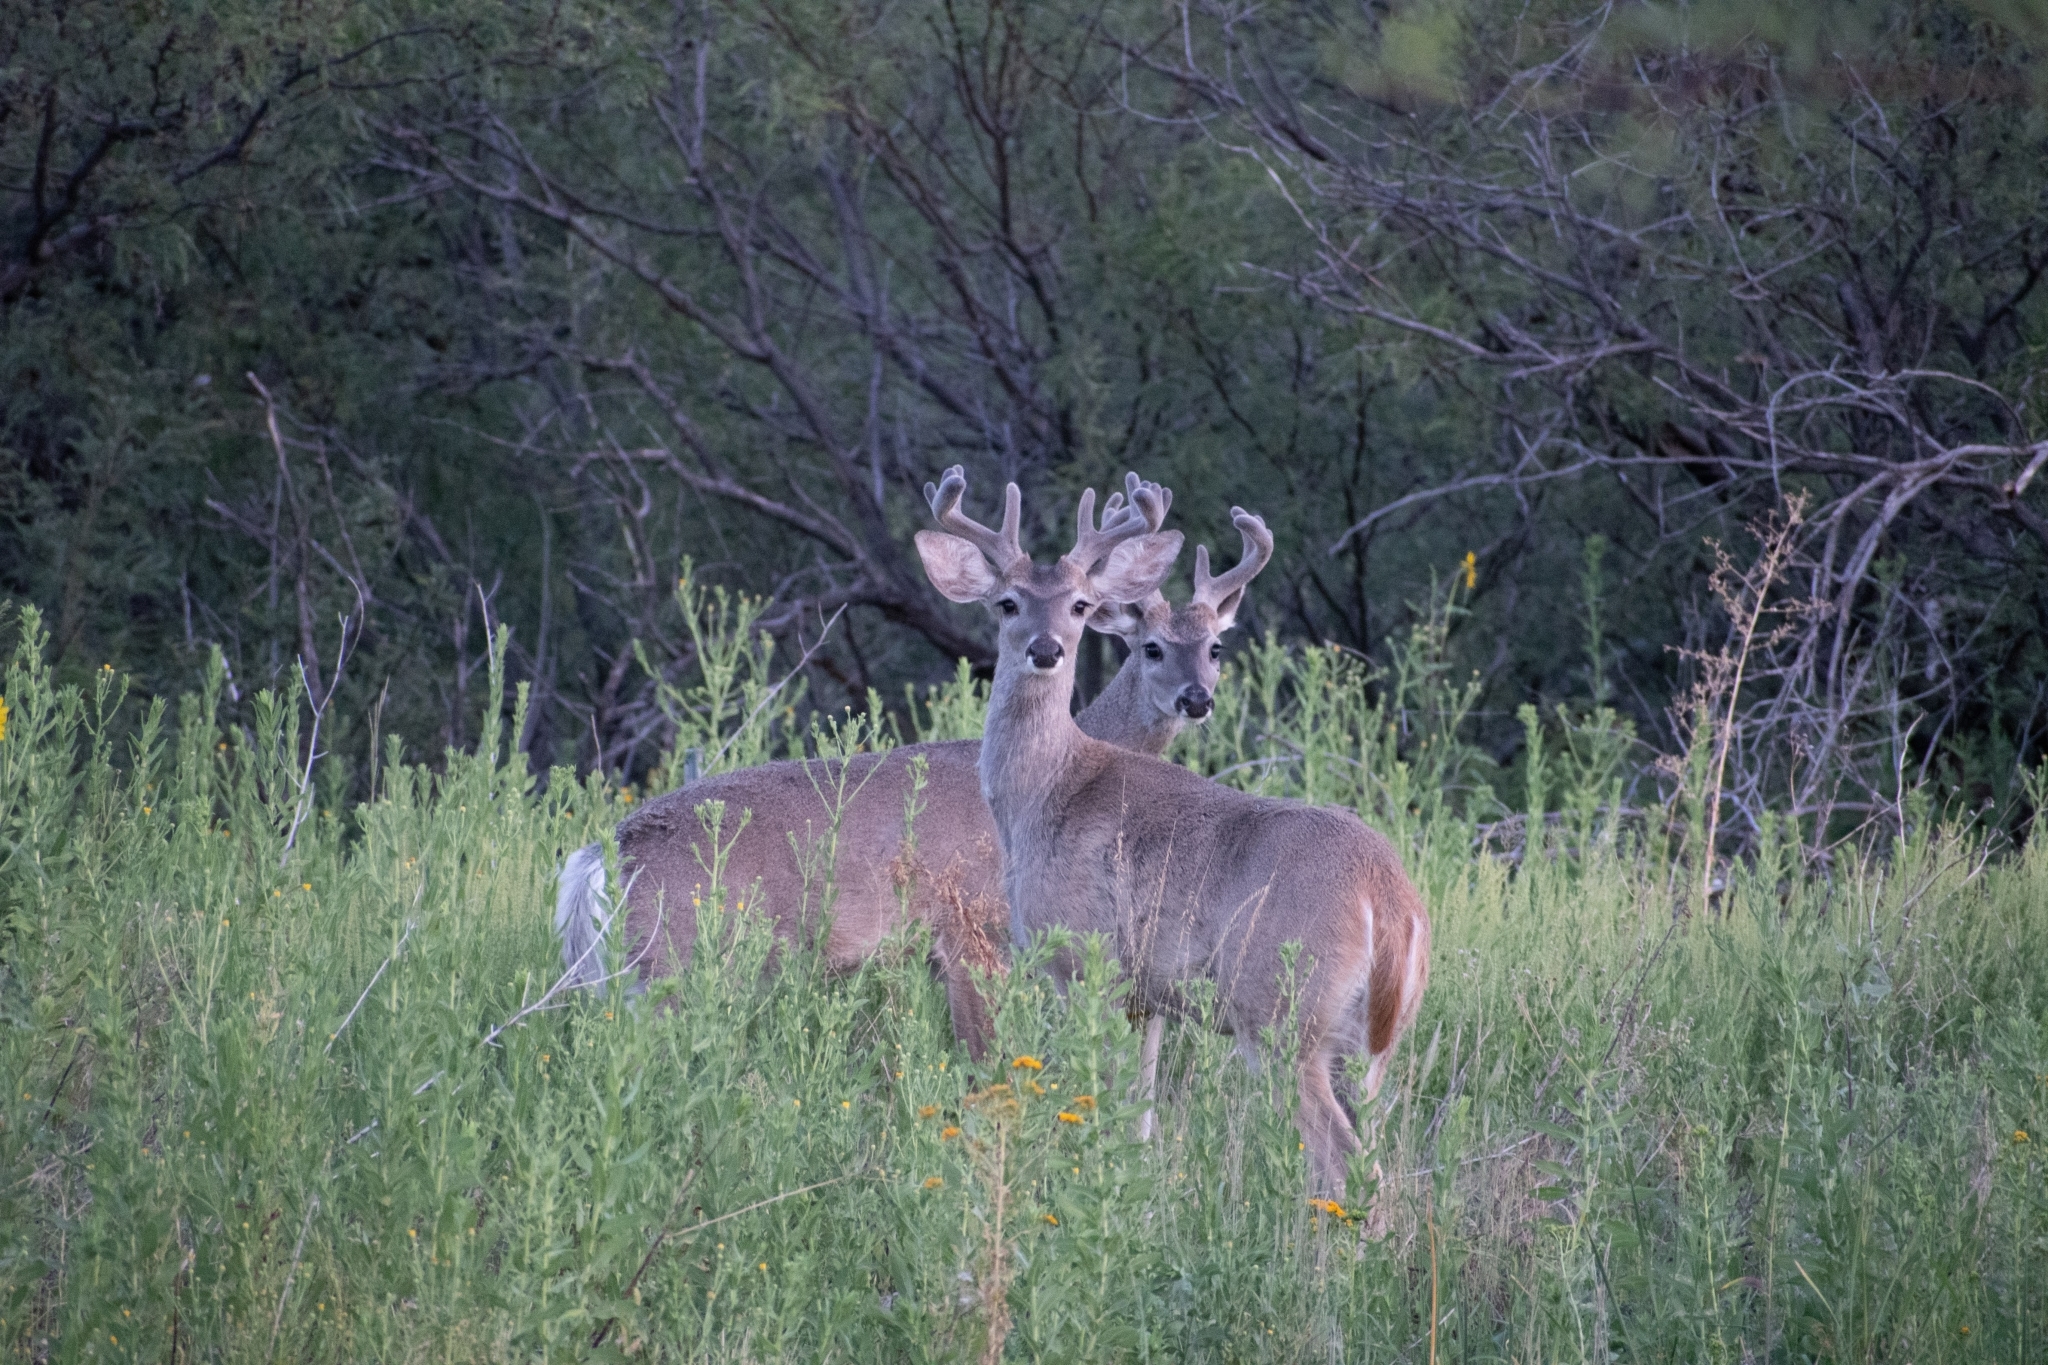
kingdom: Animalia
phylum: Chordata
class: Mammalia
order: Artiodactyla
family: Cervidae
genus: Odocoileus
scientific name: Odocoileus virginianus
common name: White-tailed deer
